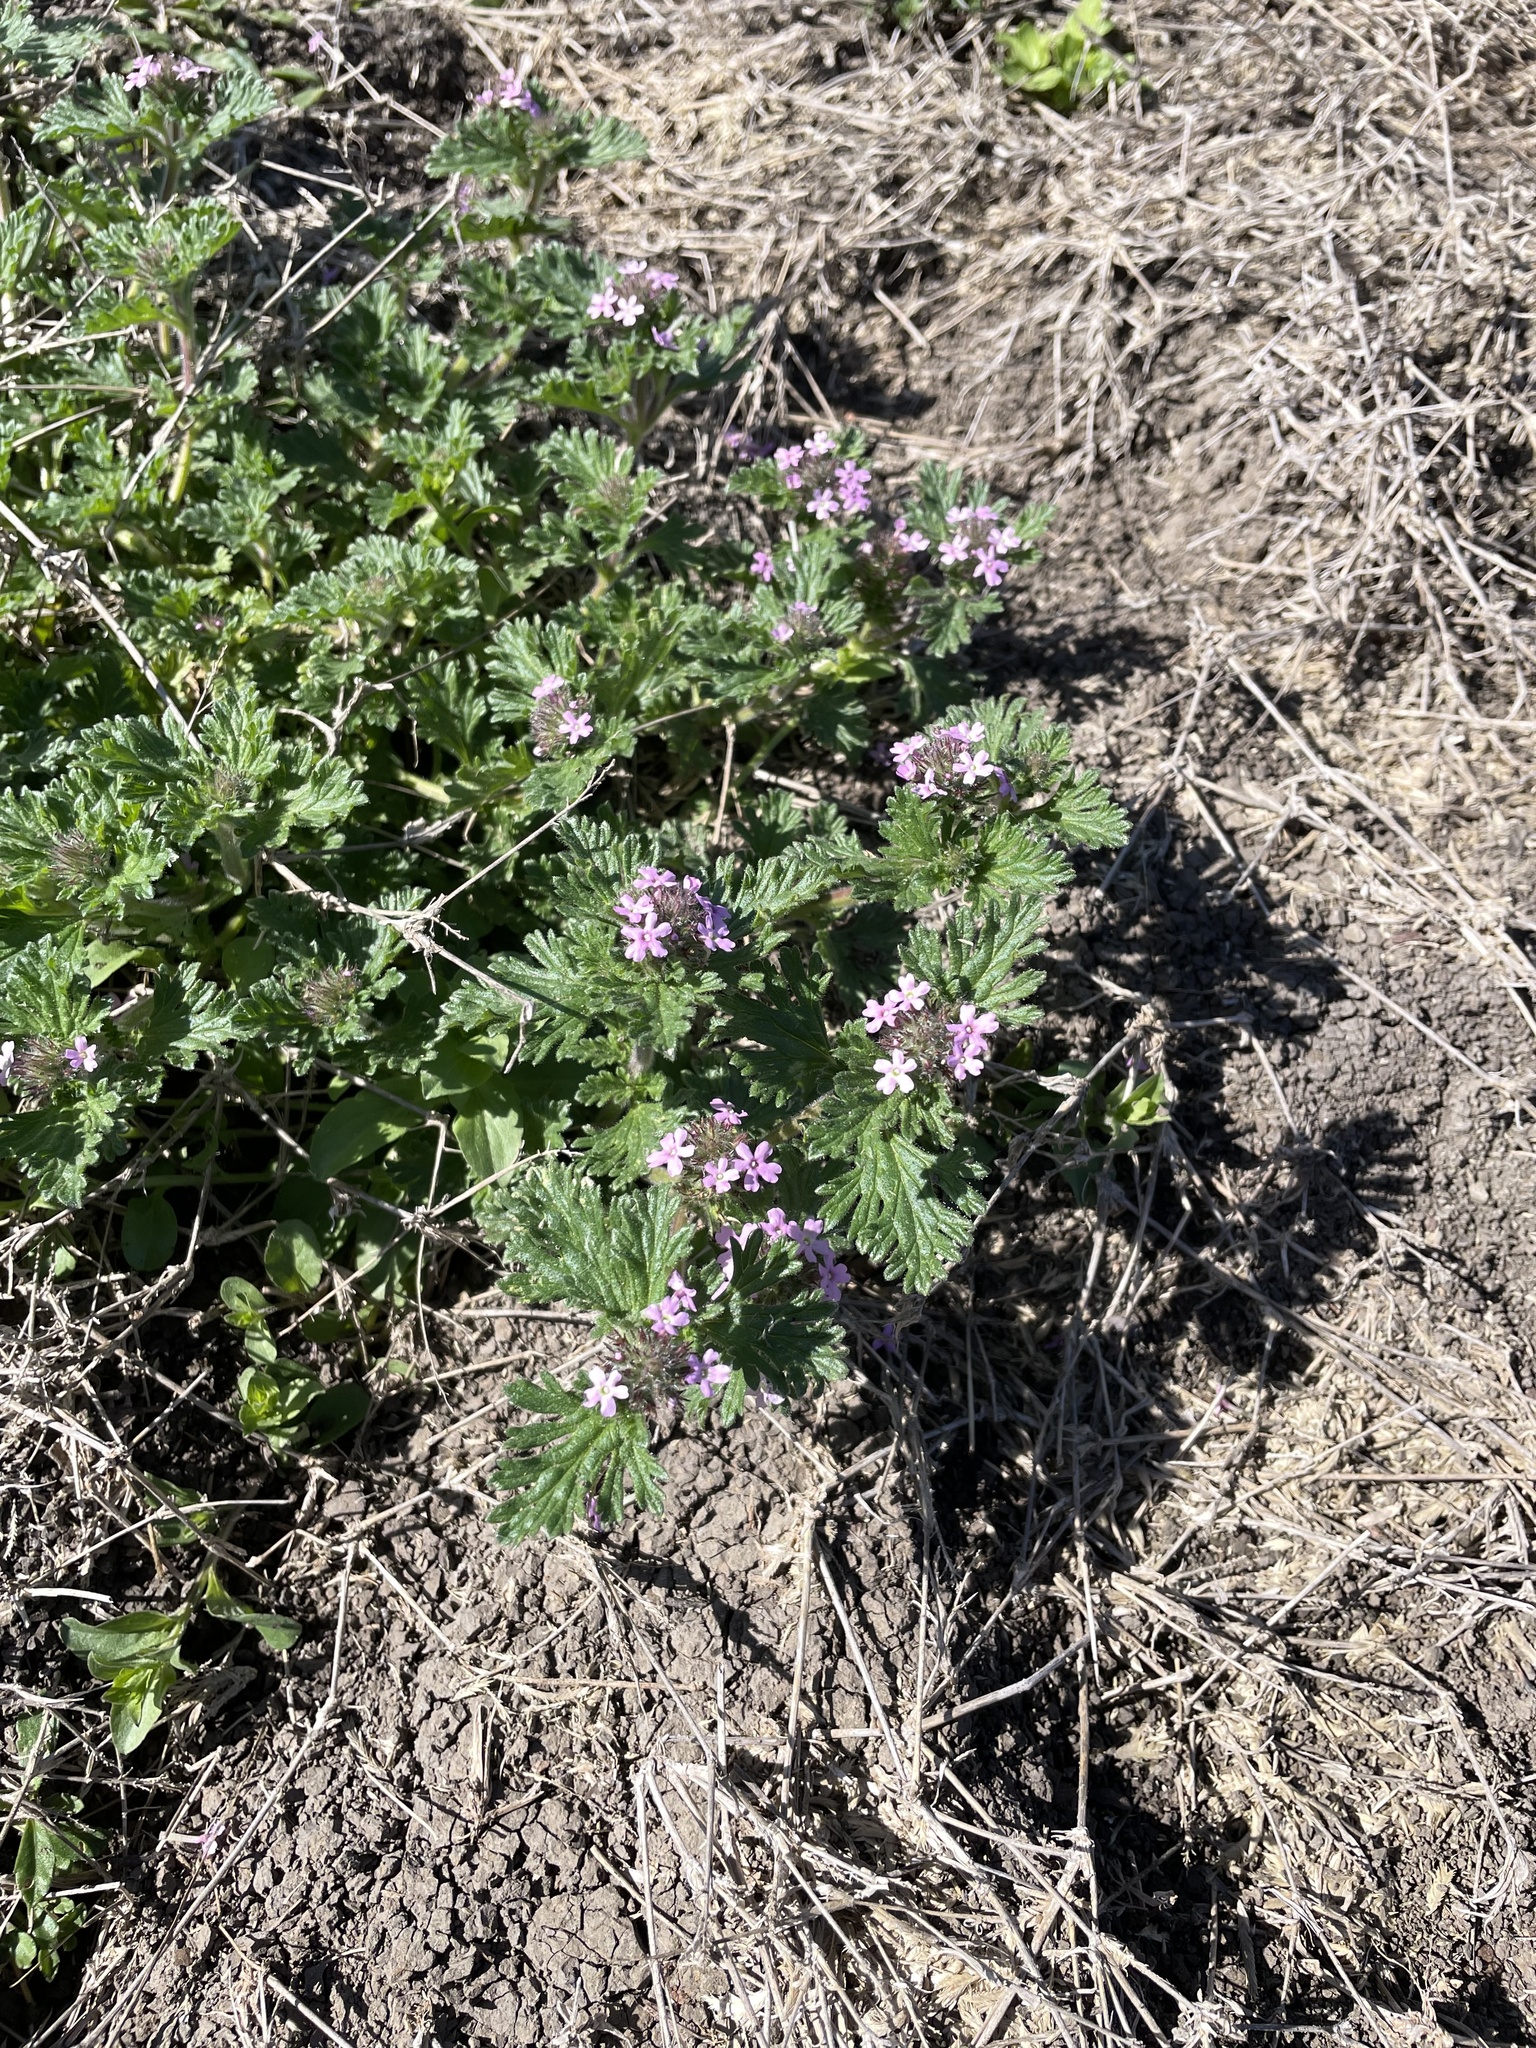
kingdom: Plantae
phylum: Tracheophyta
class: Magnoliopsida
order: Lamiales
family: Verbenaceae
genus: Verbena
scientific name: Verbena pumila
